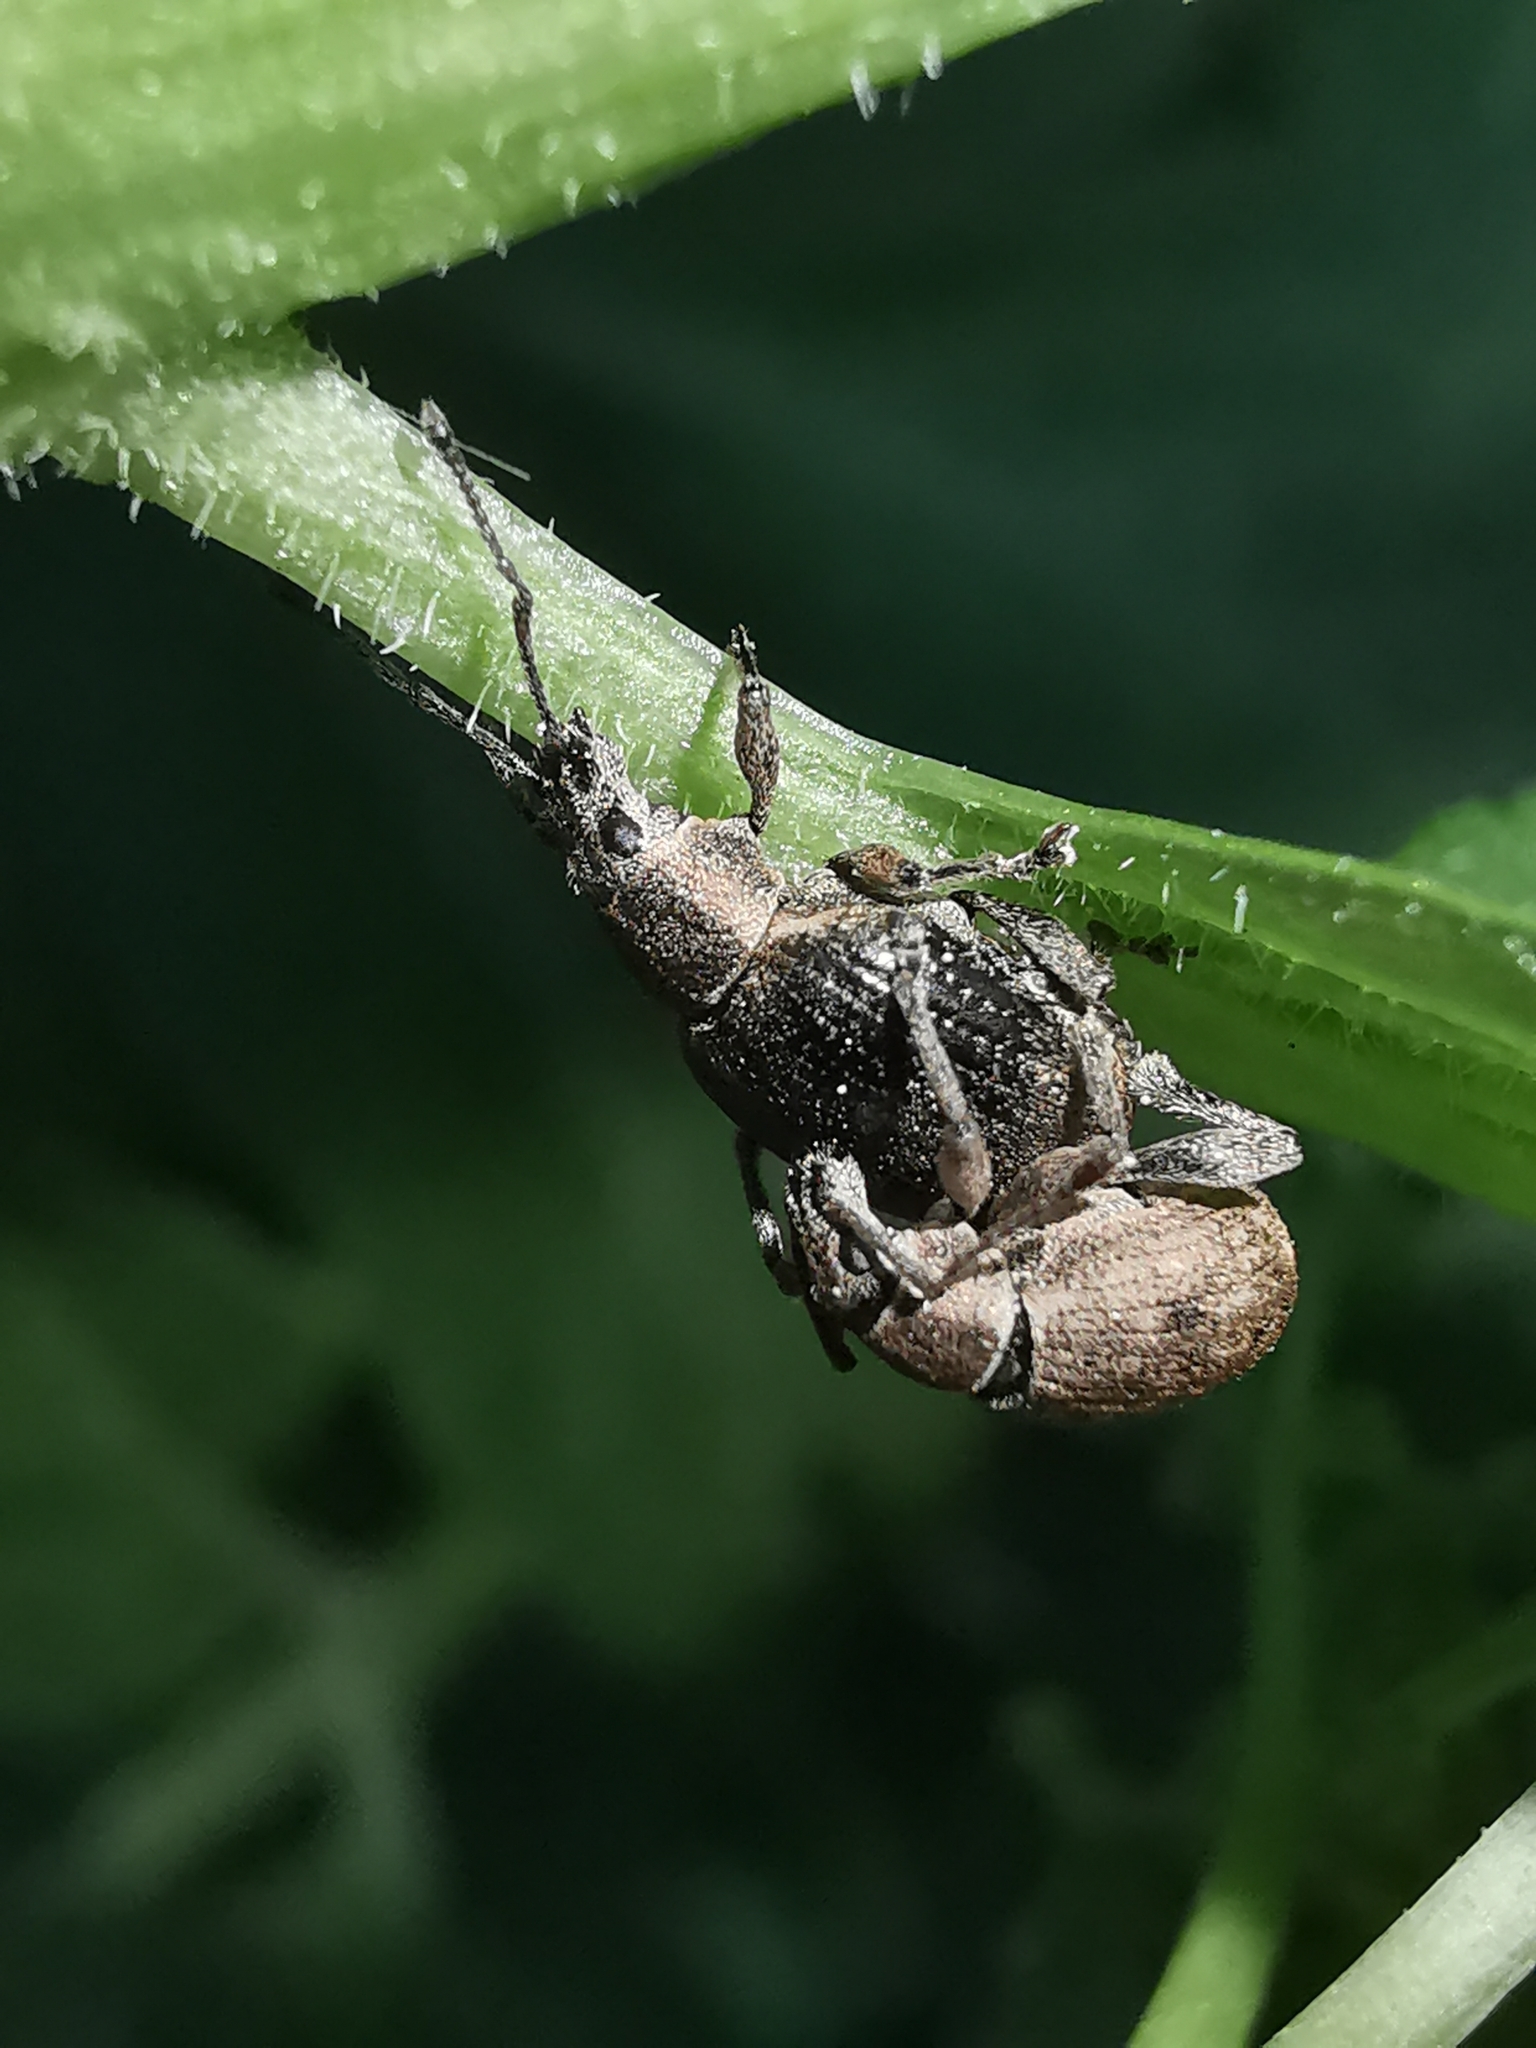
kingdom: Animalia
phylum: Arthropoda
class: Insecta
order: Coleoptera
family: Curculionidae
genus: Peritelus
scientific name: Peritelus sphaeroides
